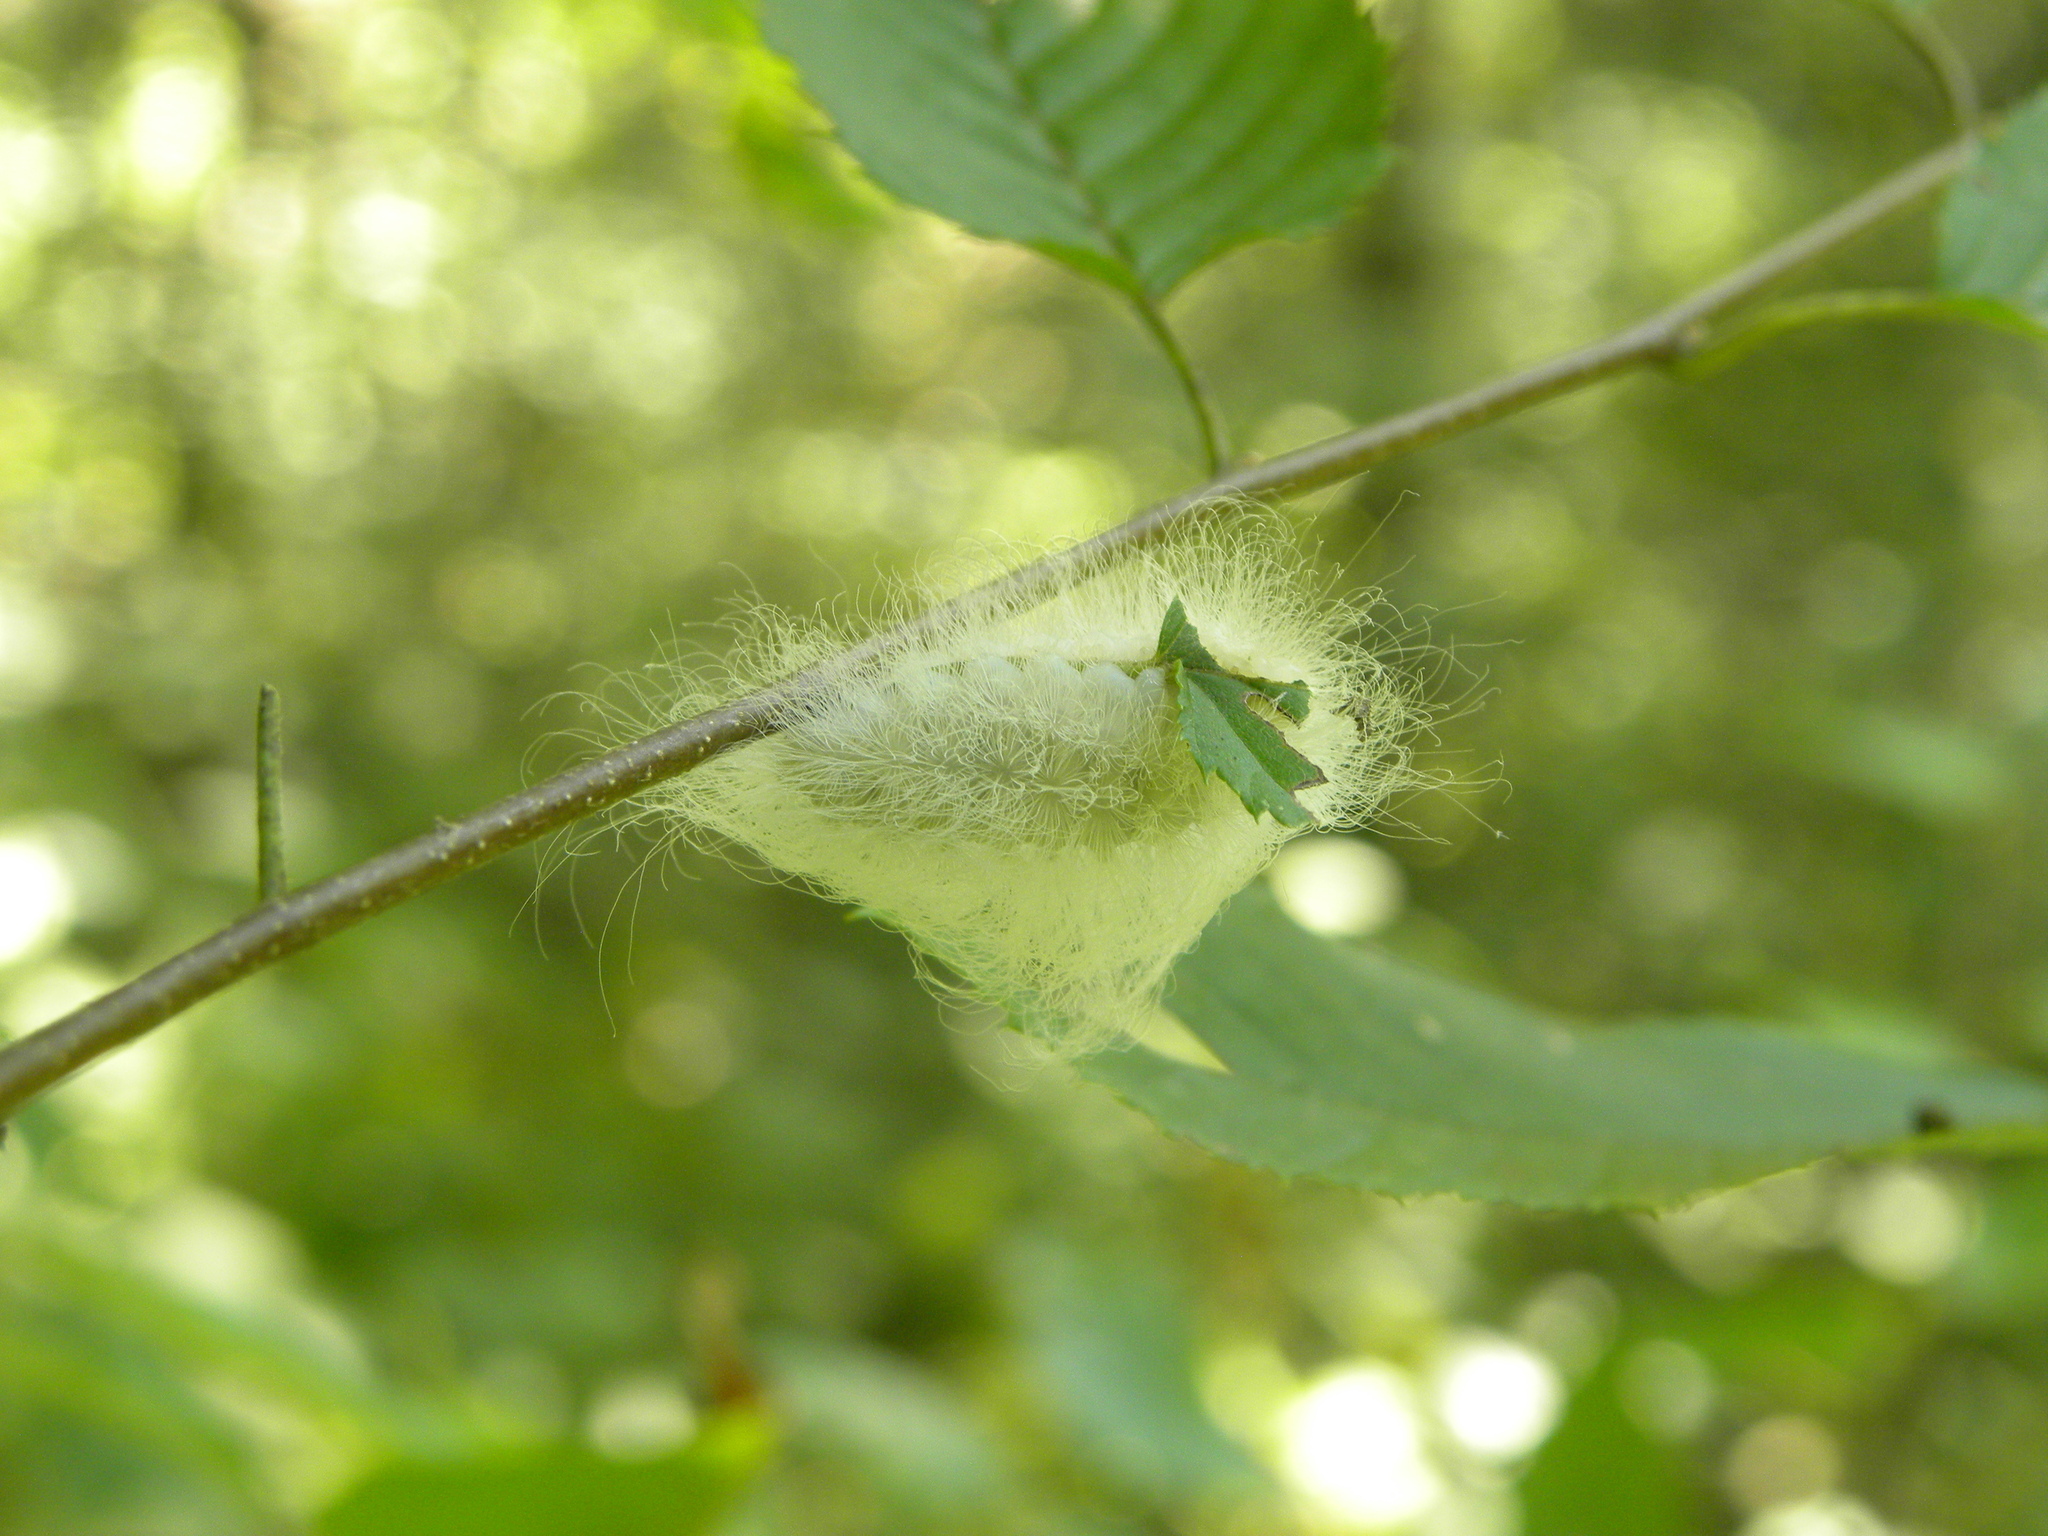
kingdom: Animalia
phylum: Arthropoda
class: Insecta
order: Lepidoptera
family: Megalopygidae
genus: Megalopyge
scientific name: Megalopyge crispata
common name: Black-waved flannel moth
